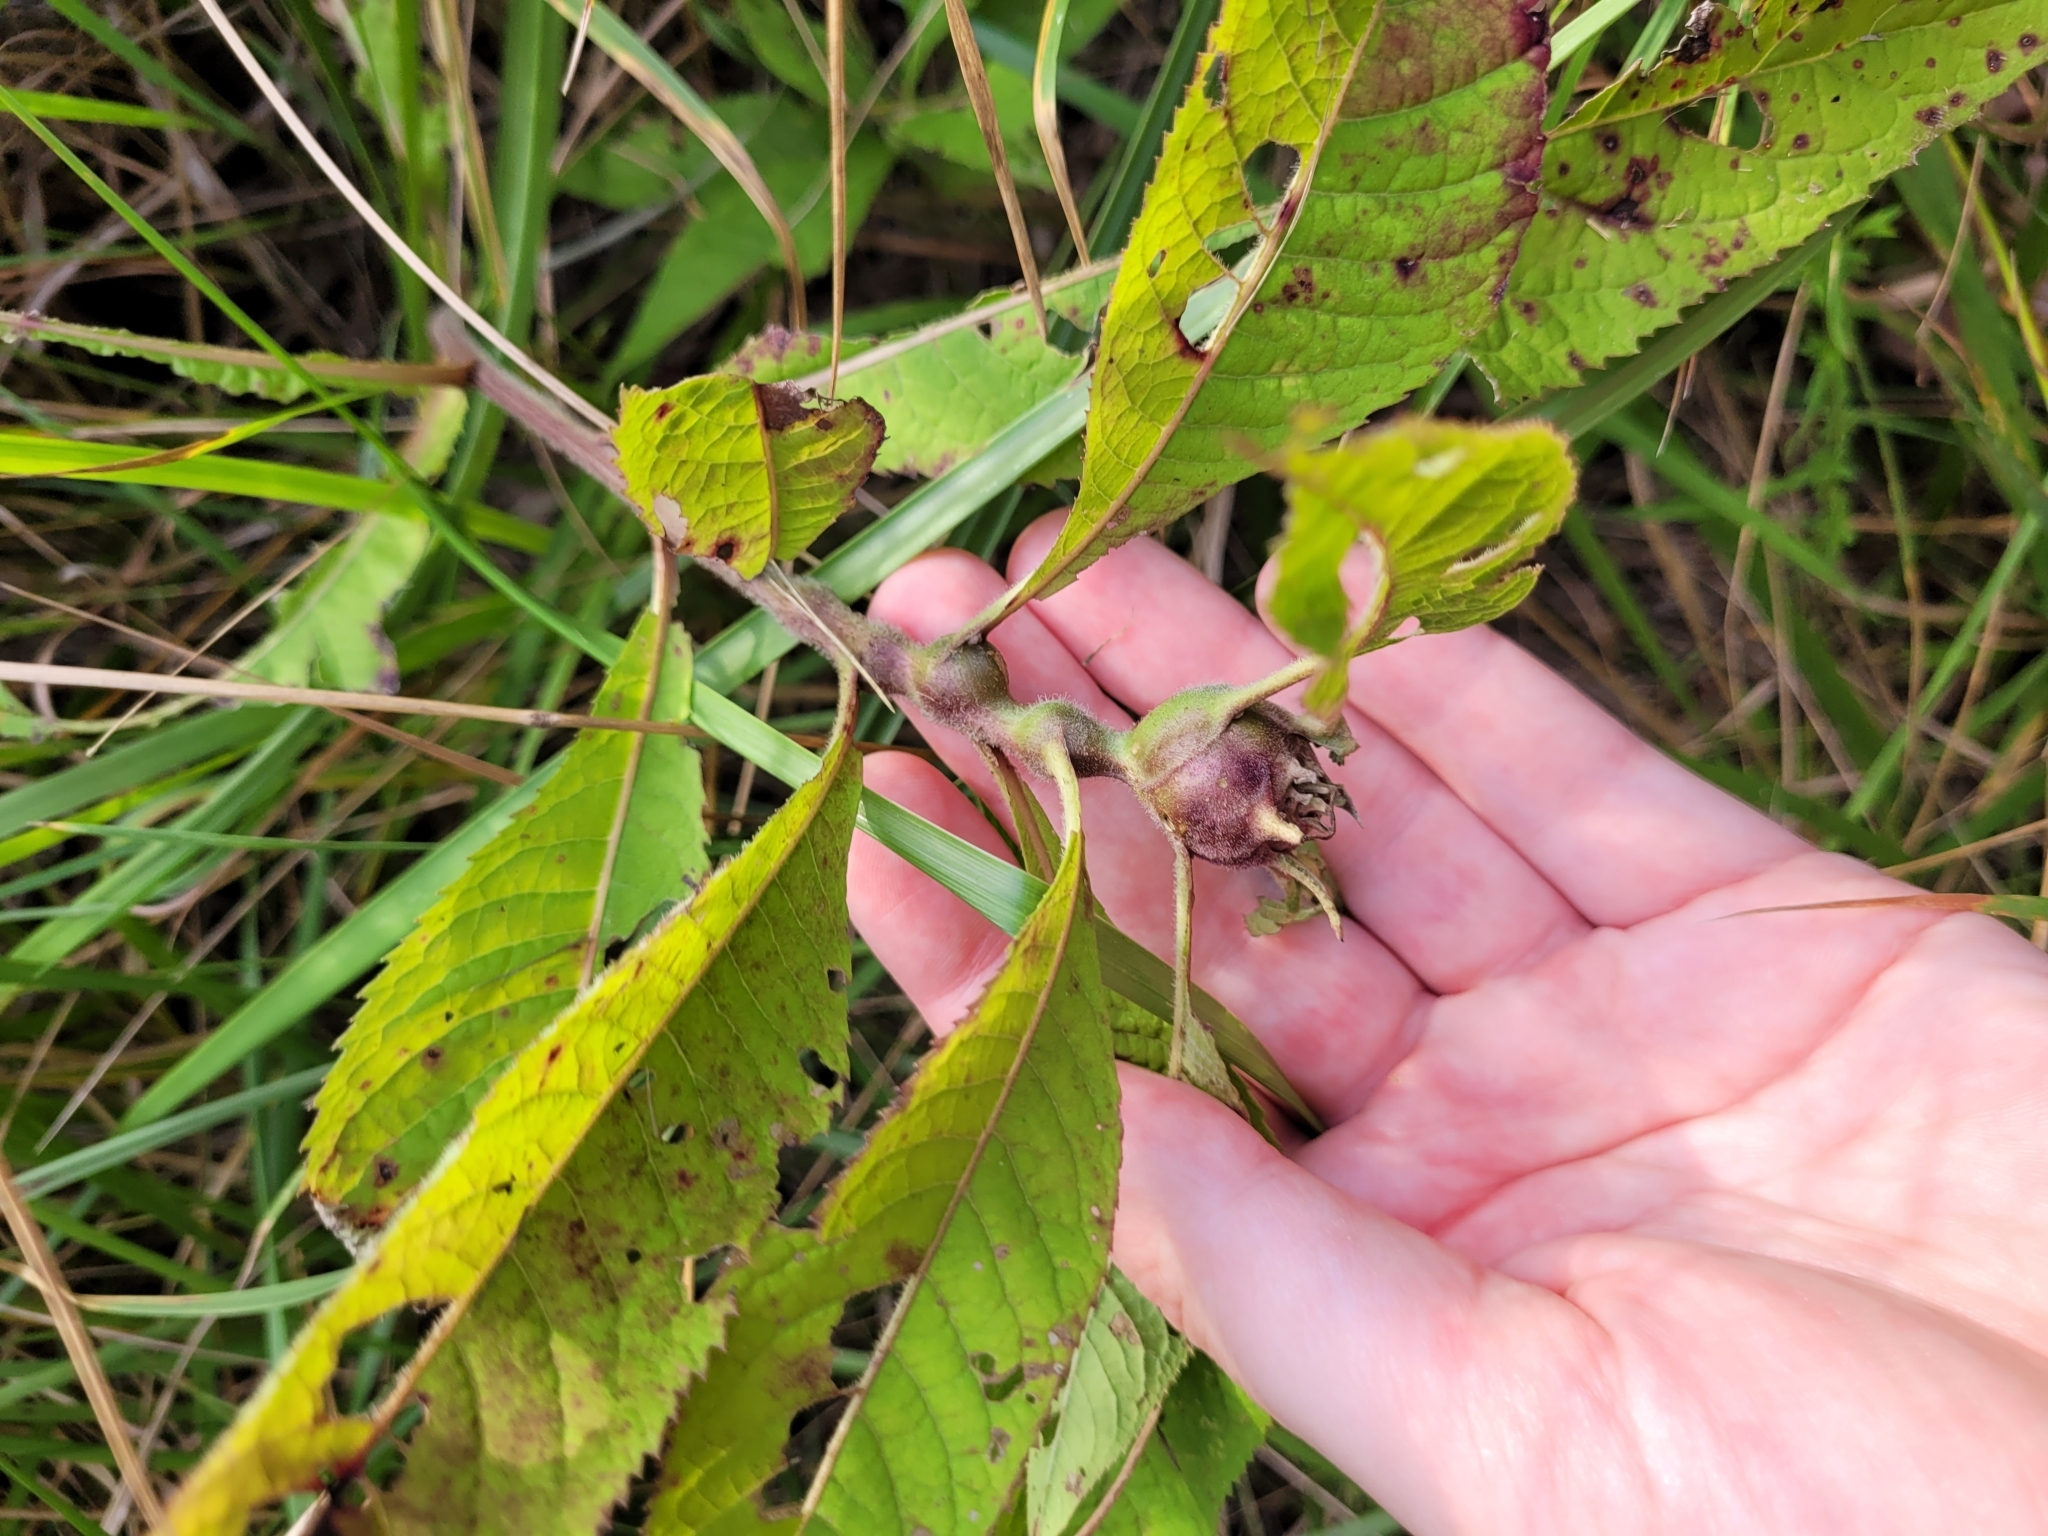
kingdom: Animalia
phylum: Arthropoda
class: Insecta
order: Diptera
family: Cecidomyiidae
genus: Neolasioptera
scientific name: Neolasioptera vernoniae
